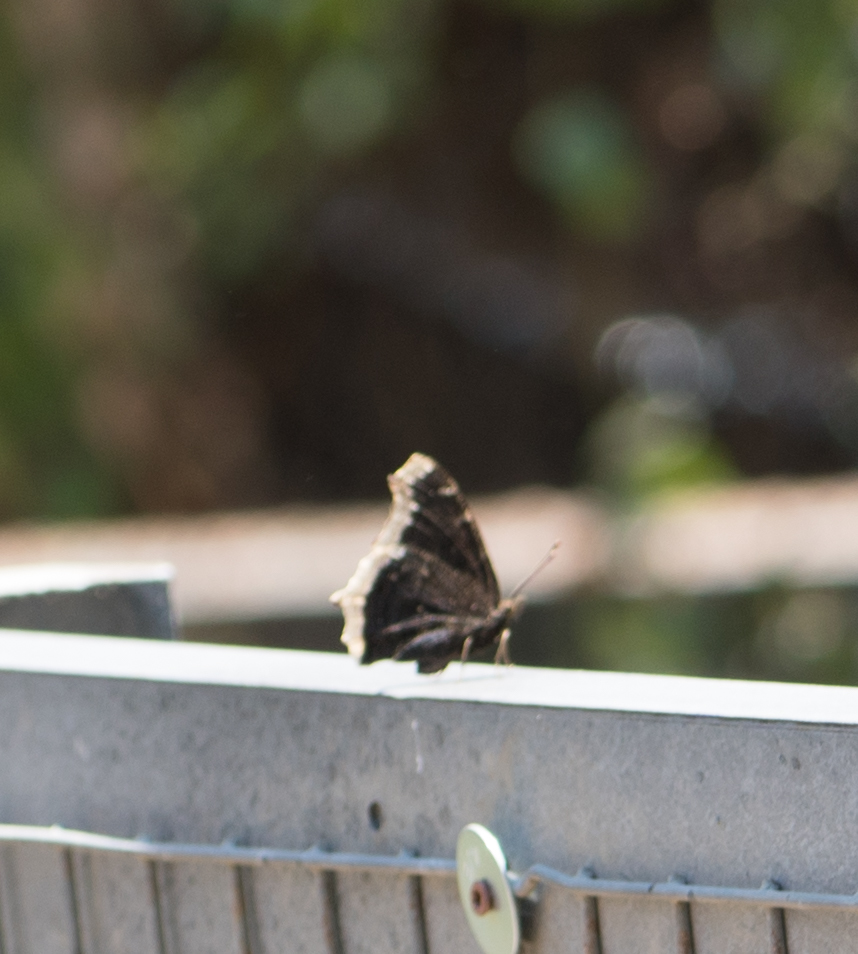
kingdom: Animalia
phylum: Arthropoda
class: Insecta
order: Lepidoptera
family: Nymphalidae
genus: Nymphalis
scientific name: Nymphalis antiopa
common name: Camberwell beauty
